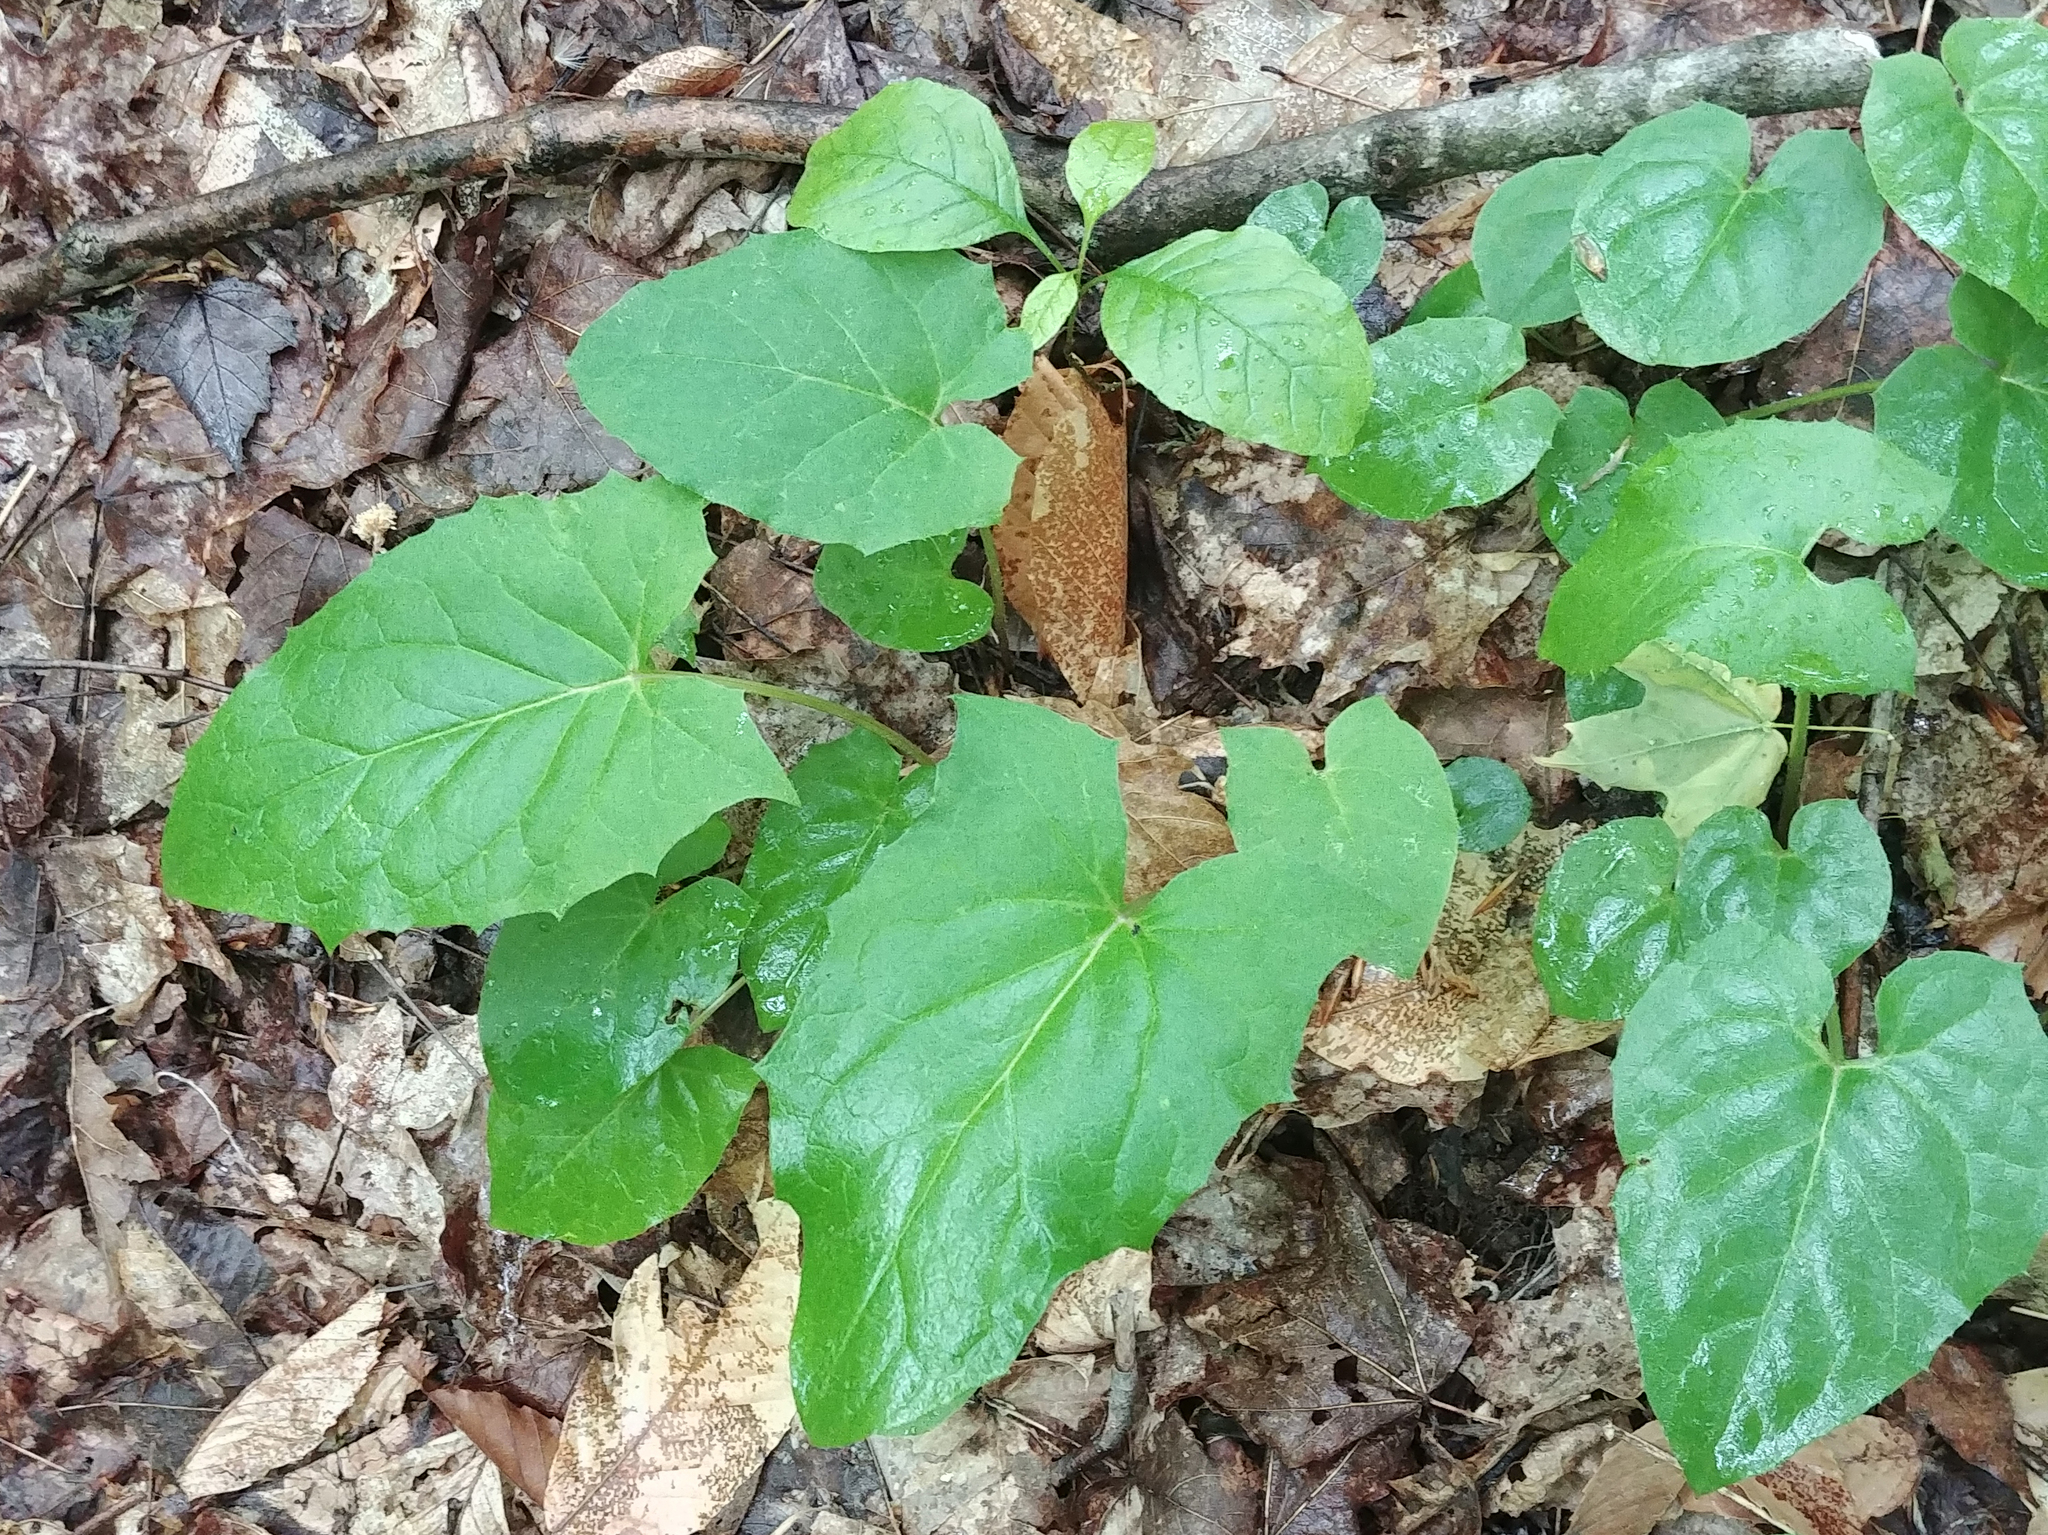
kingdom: Plantae
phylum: Tracheophyta
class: Magnoliopsida
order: Asterales
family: Asteraceae
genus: Nabalus
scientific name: Nabalus
